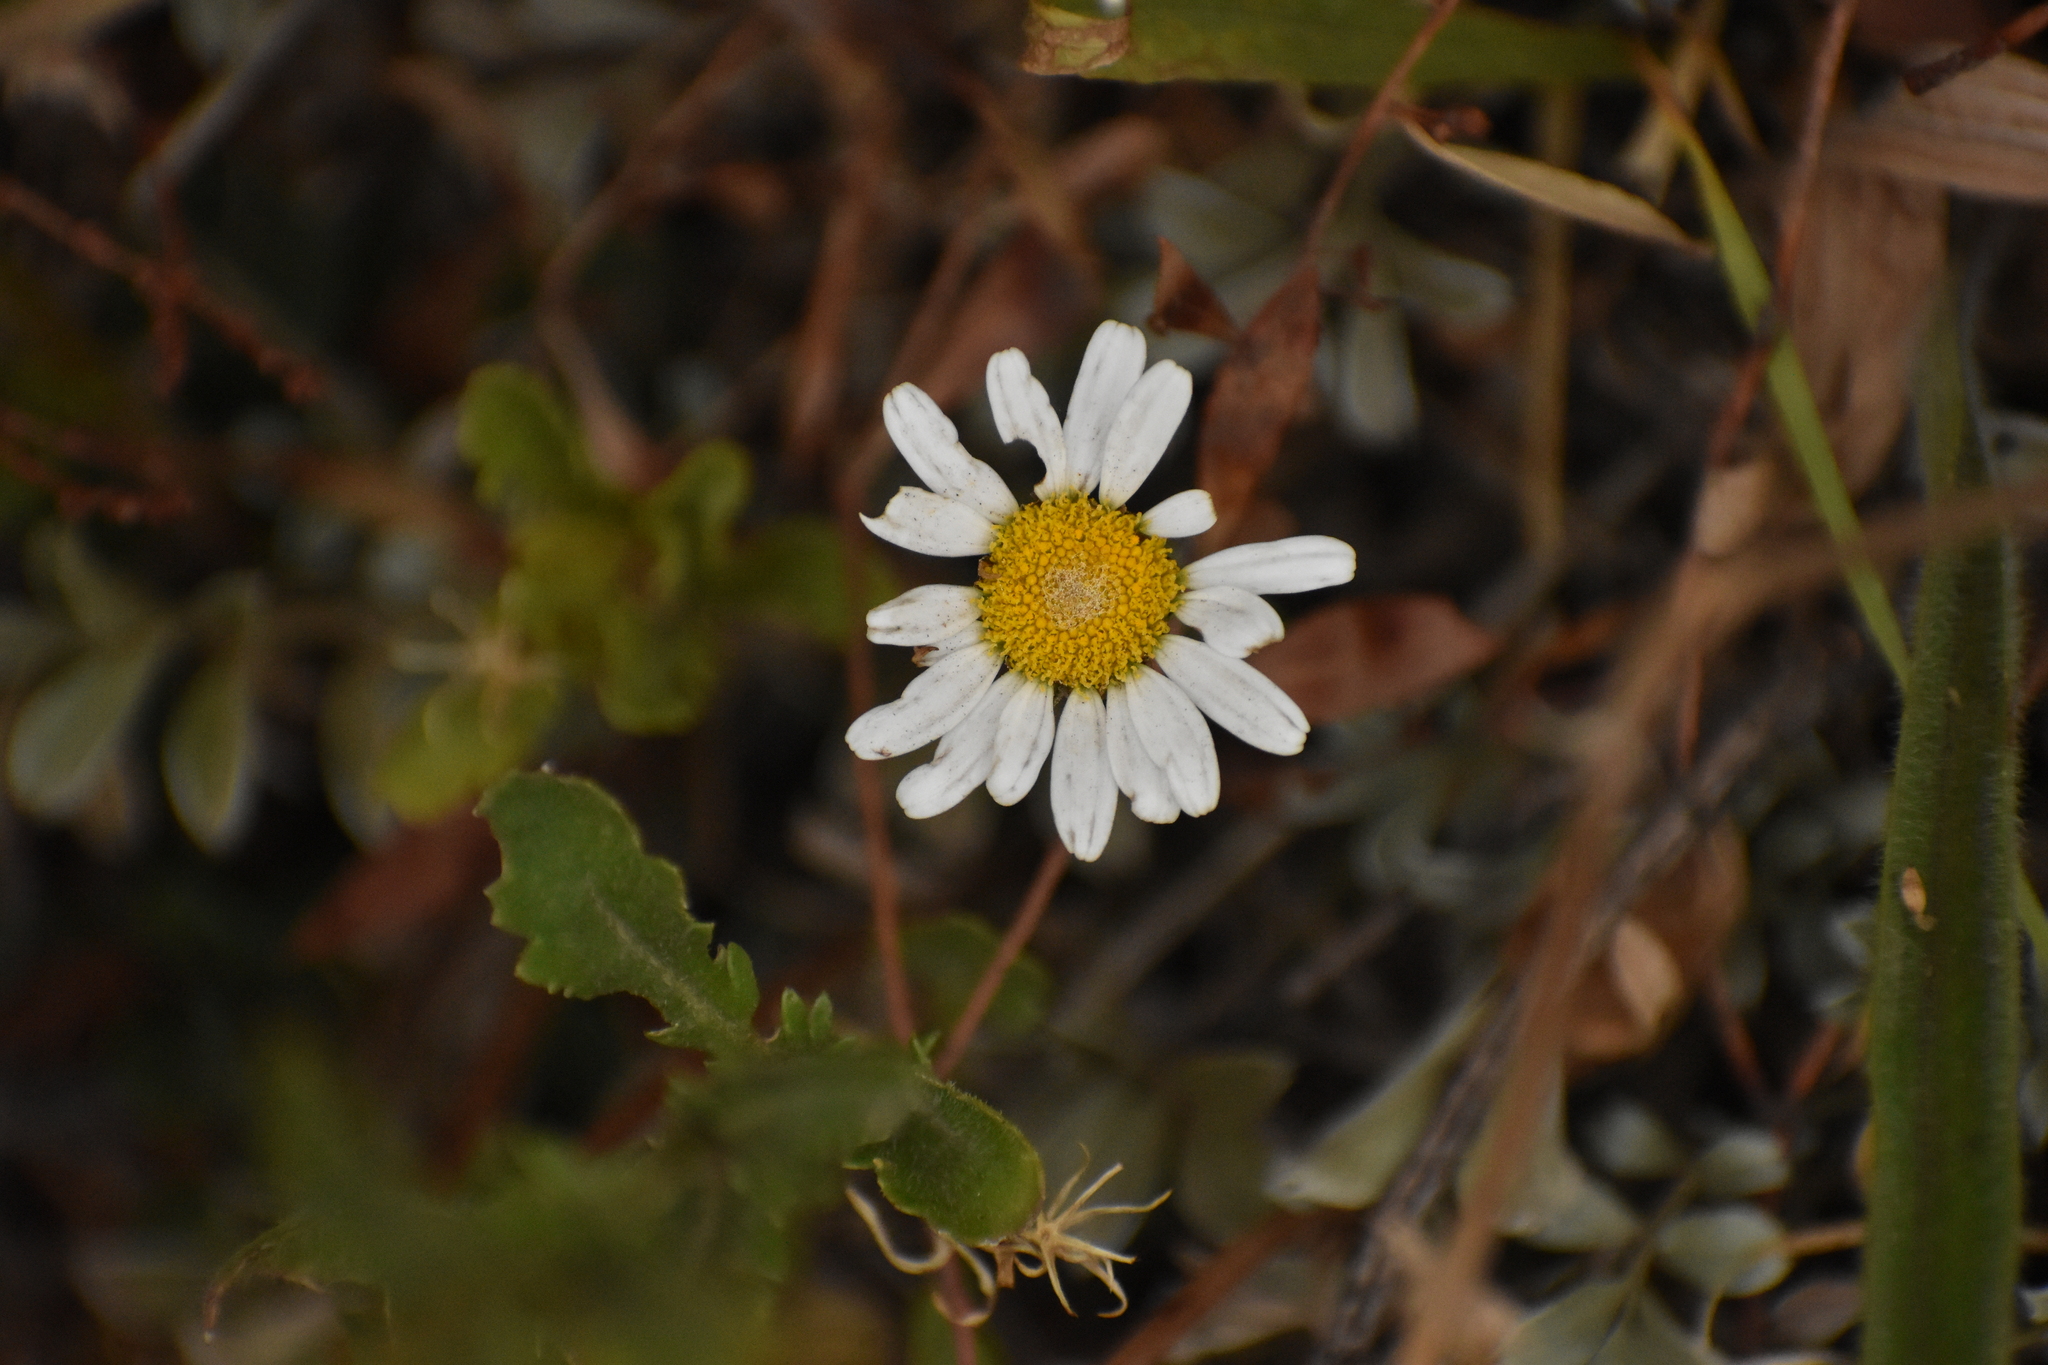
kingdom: Plantae
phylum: Tracheophyta
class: Magnoliopsida
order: Asterales
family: Asteraceae
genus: Leucanthemum
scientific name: Leucanthemum vulgare
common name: Oxeye daisy
